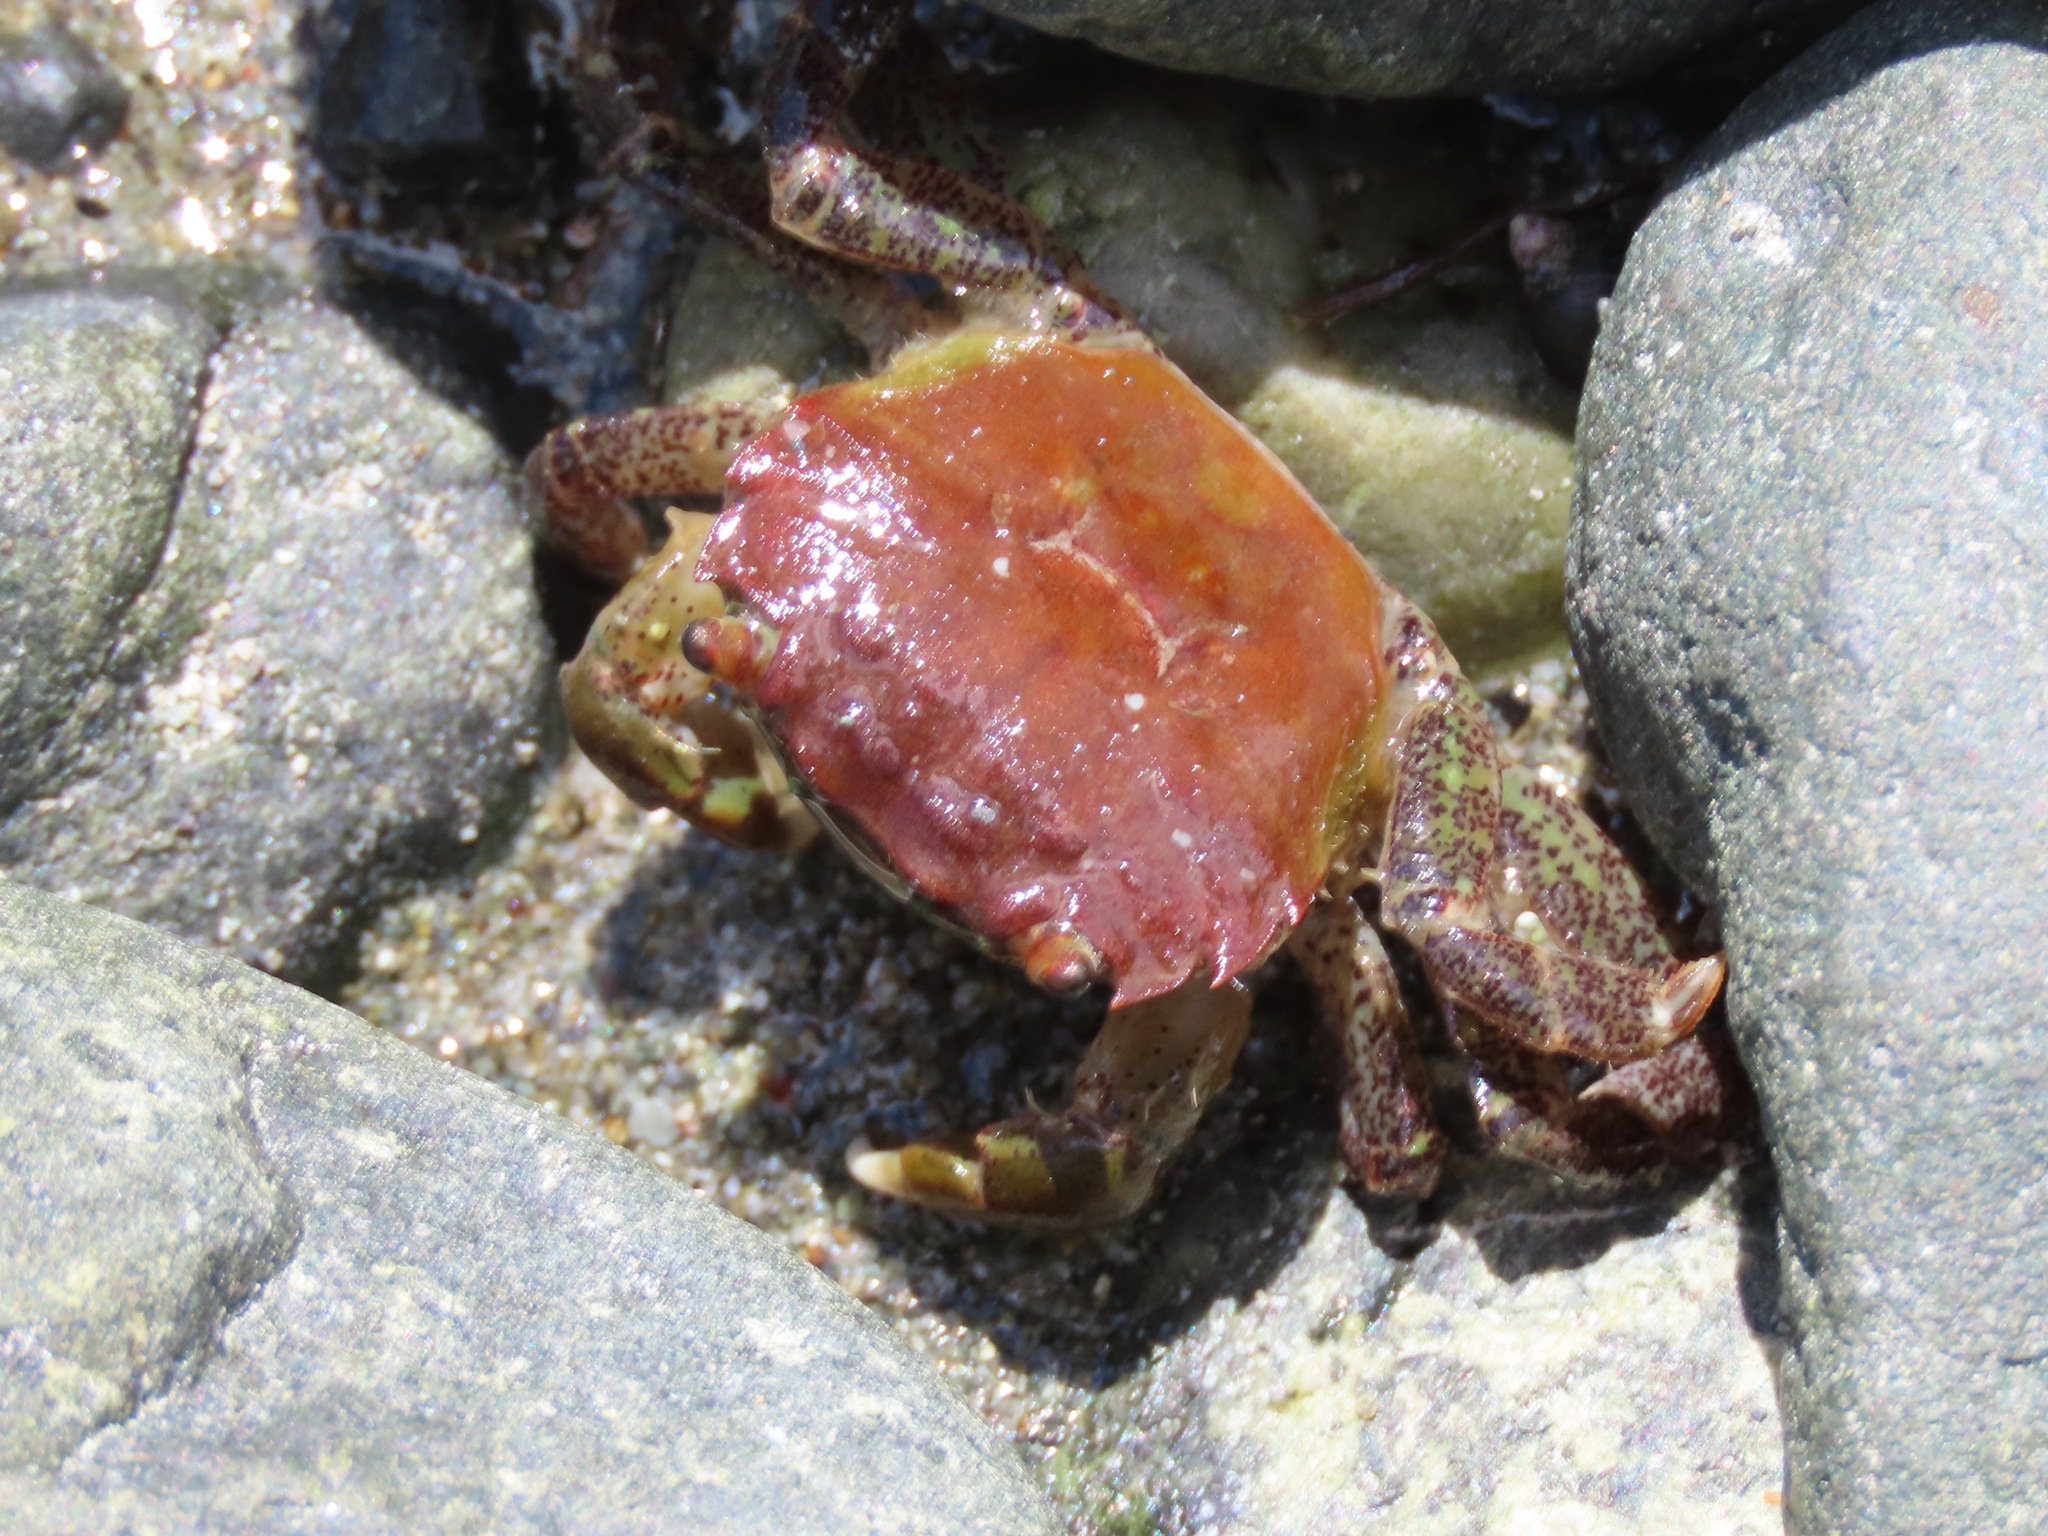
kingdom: Animalia
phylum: Arthropoda
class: Malacostraca
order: Decapoda
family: Varunidae
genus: Hemigrapsus
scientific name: Hemigrapsus oregonensis
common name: Yellow shore crab
